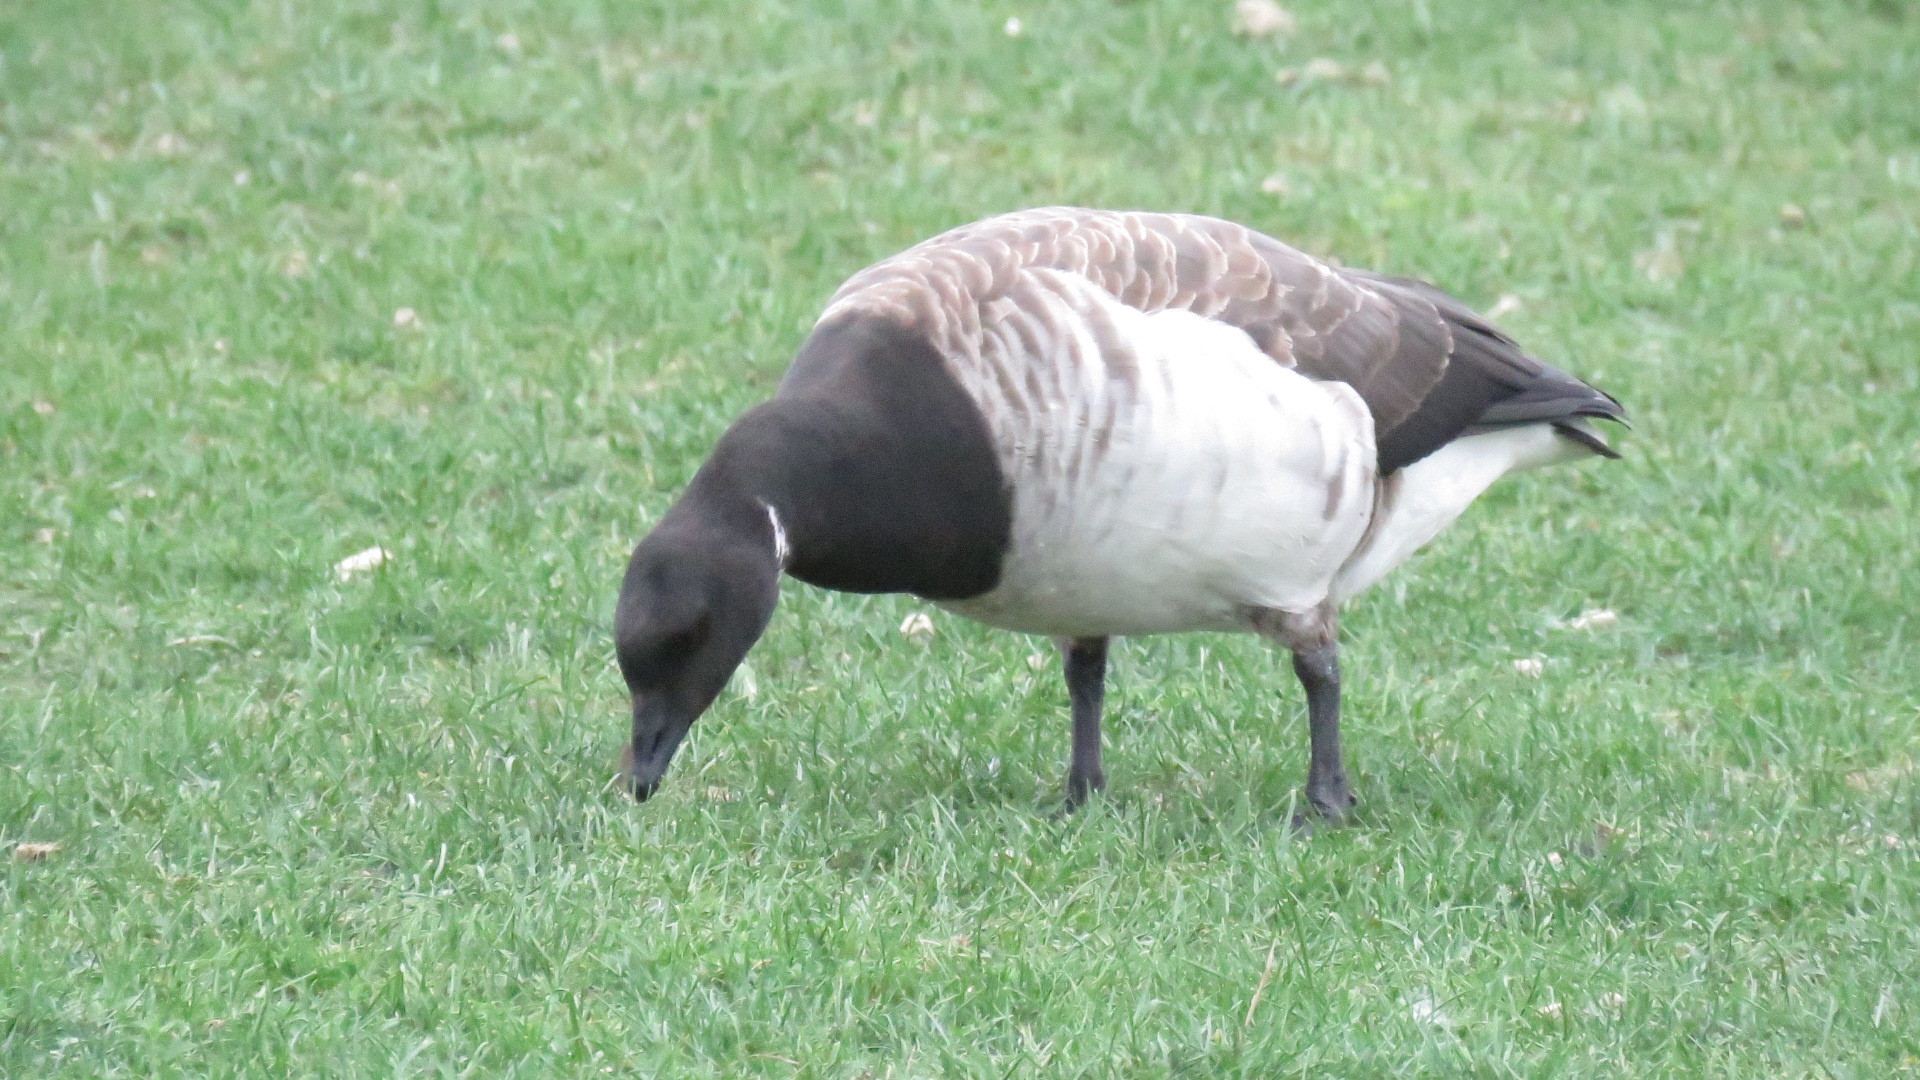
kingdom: Animalia
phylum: Chordata
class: Aves
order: Anseriformes
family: Anatidae
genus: Branta
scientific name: Branta bernicla
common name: Brant goose
